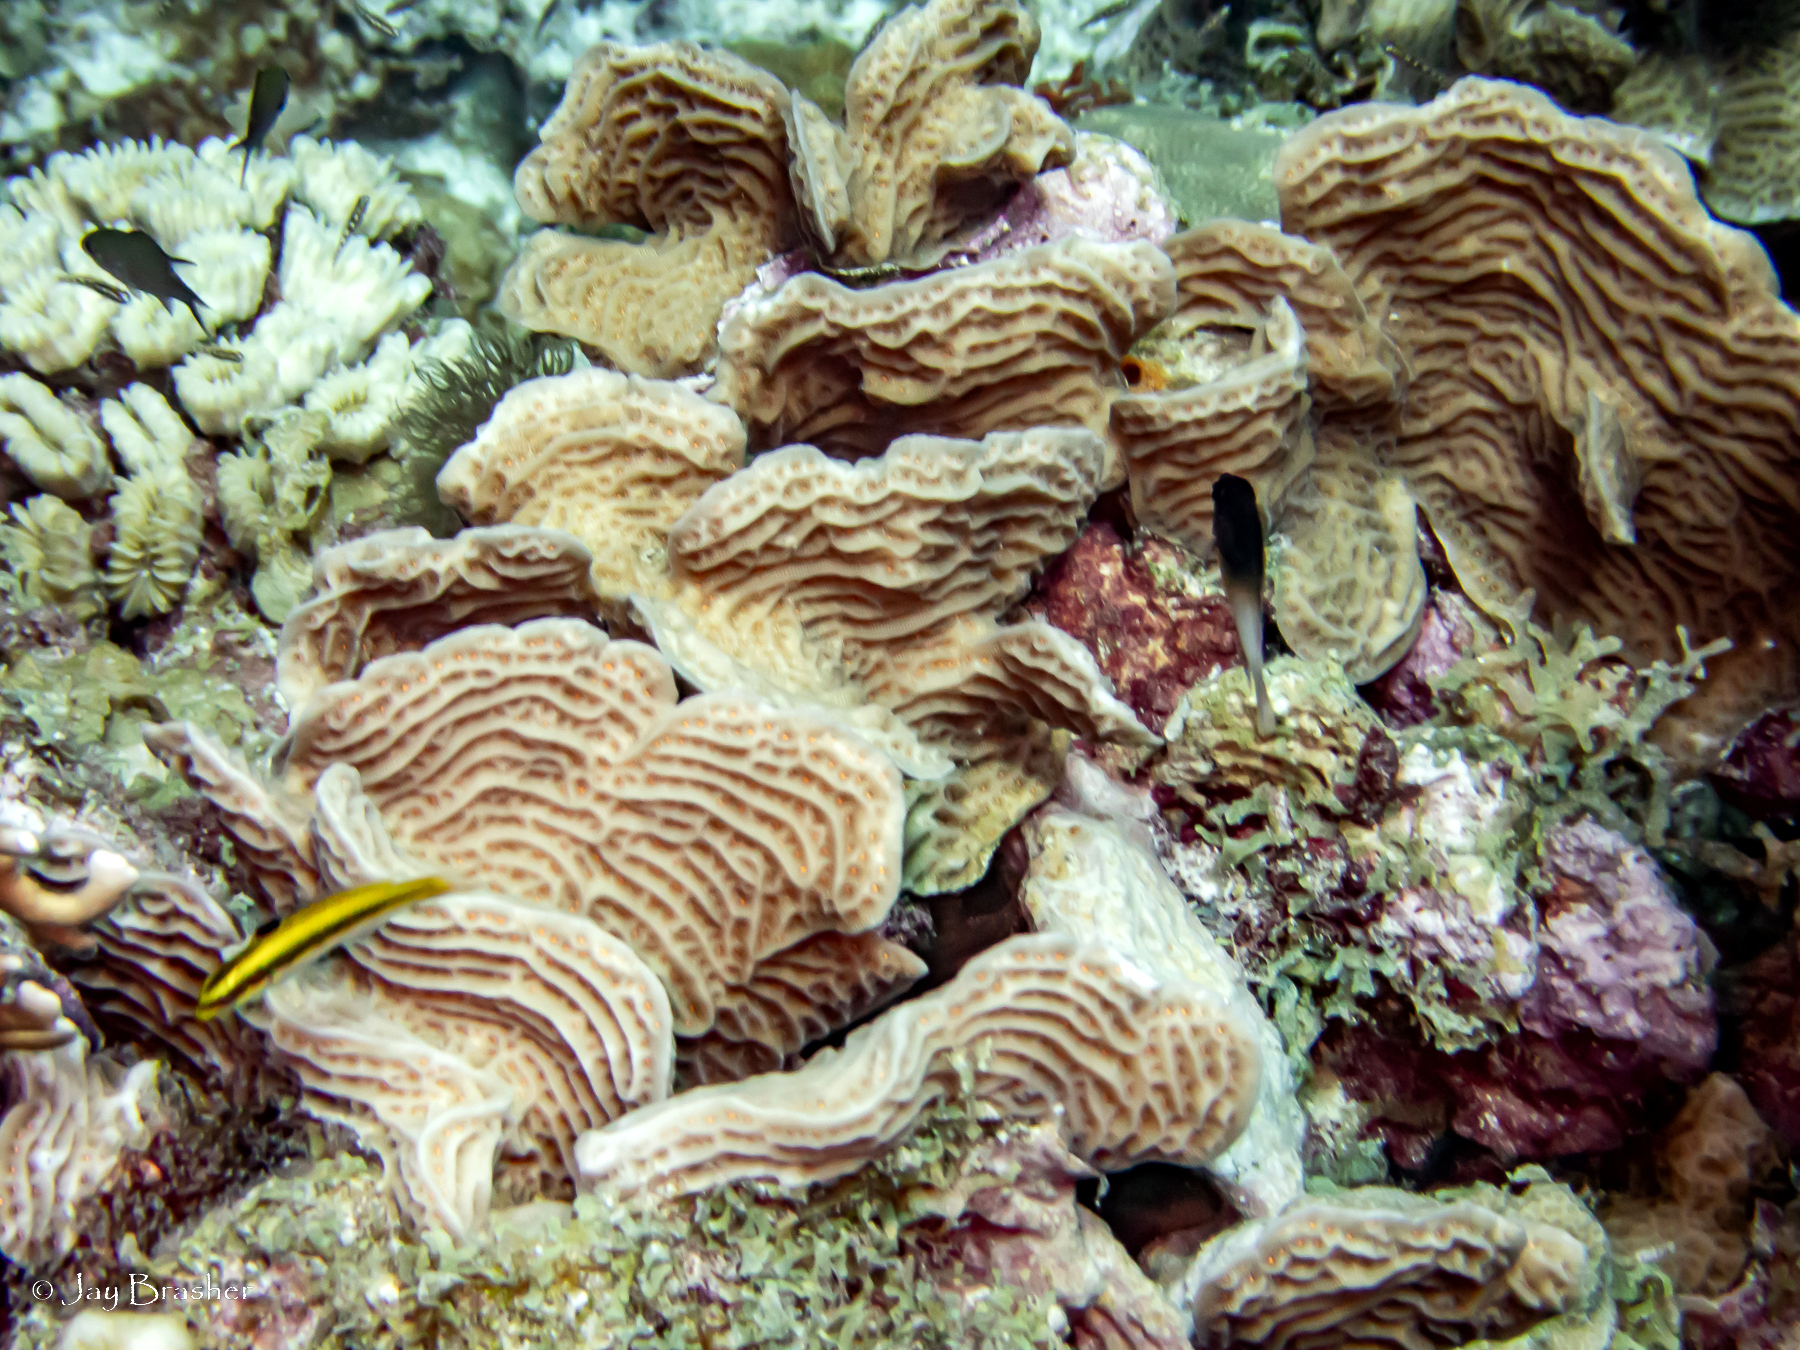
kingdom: Animalia
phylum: Chordata
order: Perciformes
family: Labridae
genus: Thalassoma
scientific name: Thalassoma bifasciatum
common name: Bluehead wrasse
